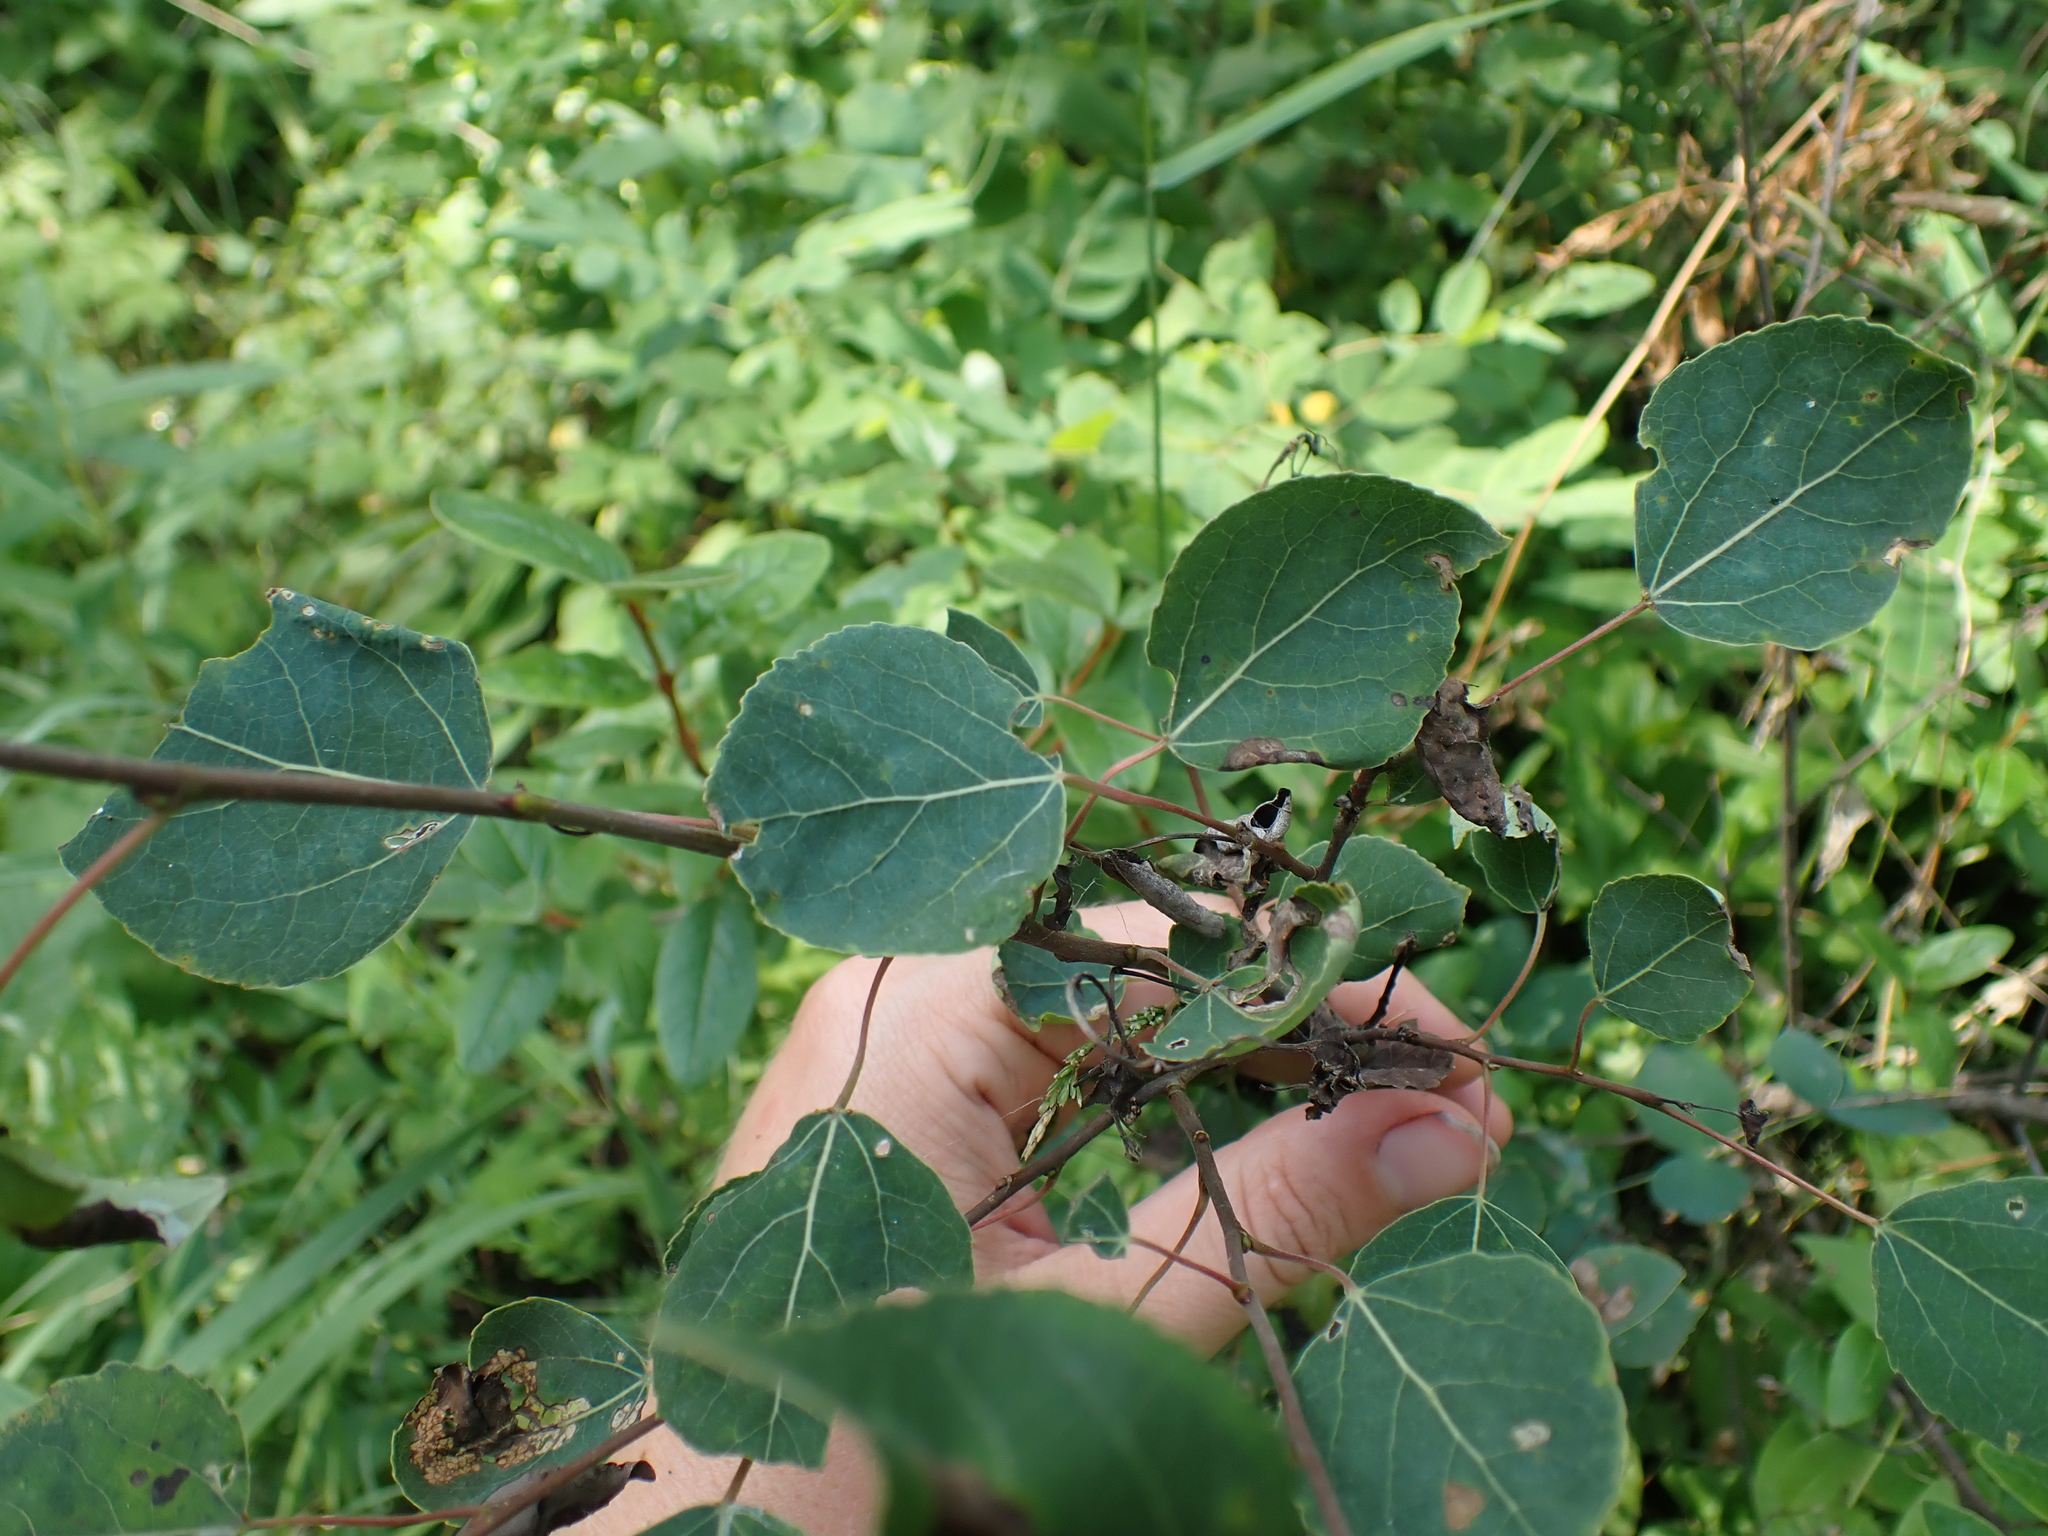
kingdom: Plantae
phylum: Tracheophyta
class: Magnoliopsida
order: Malpighiales
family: Salicaceae
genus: Populus
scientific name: Populus tremuloides
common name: Quaking aspen
